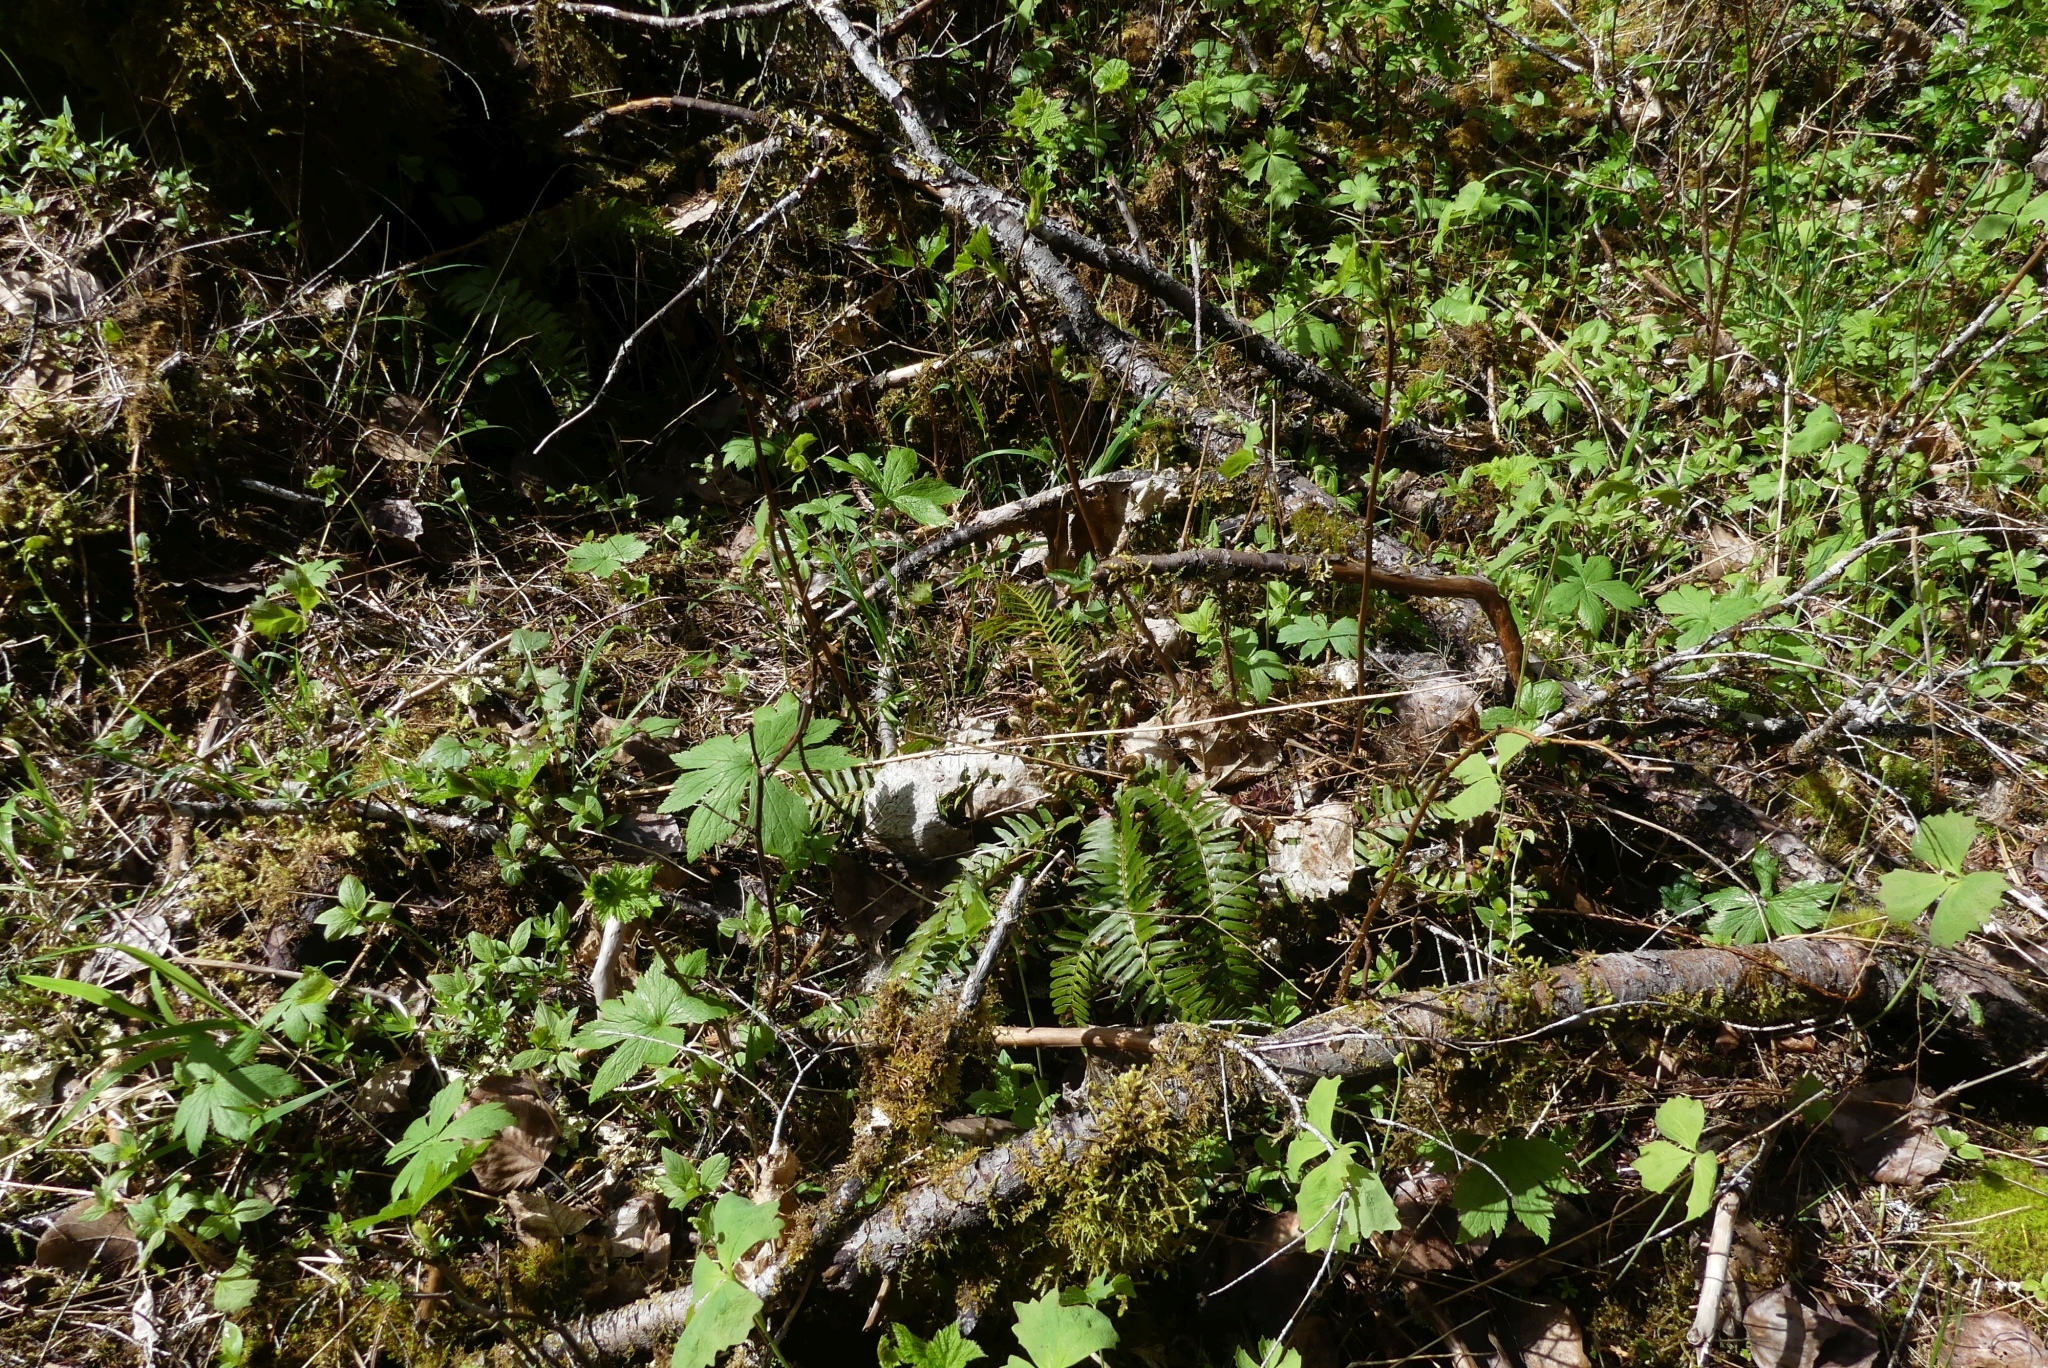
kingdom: Plantae
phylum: Tracheophyta
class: Polypodiopsida
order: Polypodiales
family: Dryopteridaceae
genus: Polystichum
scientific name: Polystichum munitum
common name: Western sword-fern
